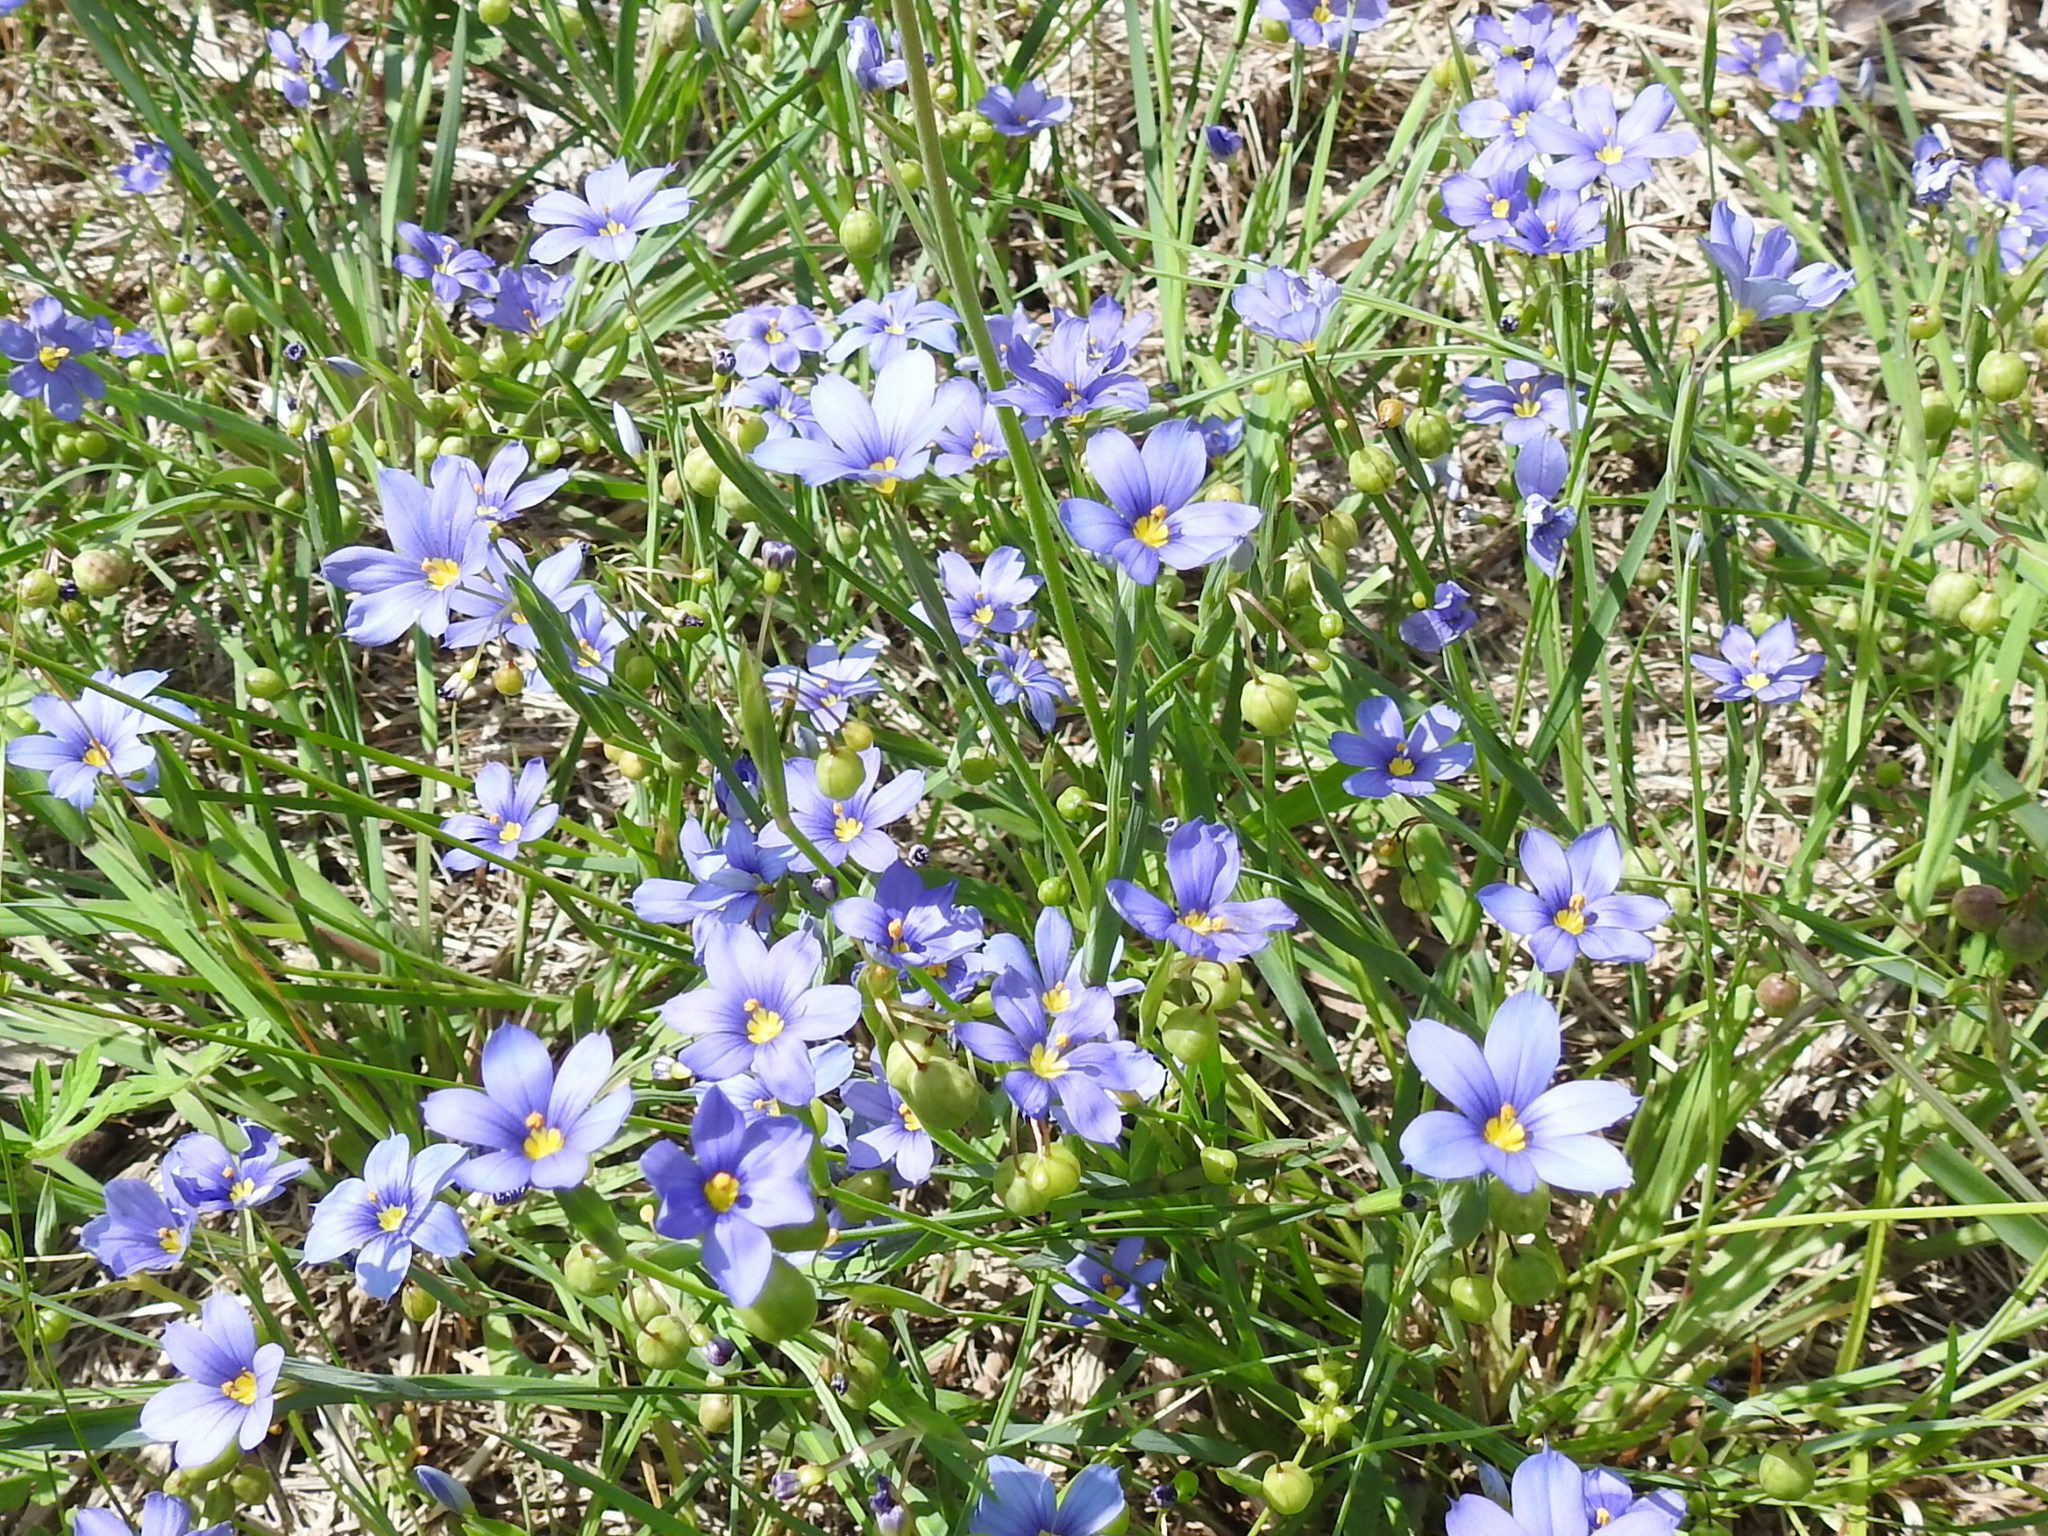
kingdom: Plantae
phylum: Tracheophyta
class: Liliopsida
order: Asparagales
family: Iridaceae
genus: Sisyrinchium
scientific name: Sisyrinchium pruinosum
